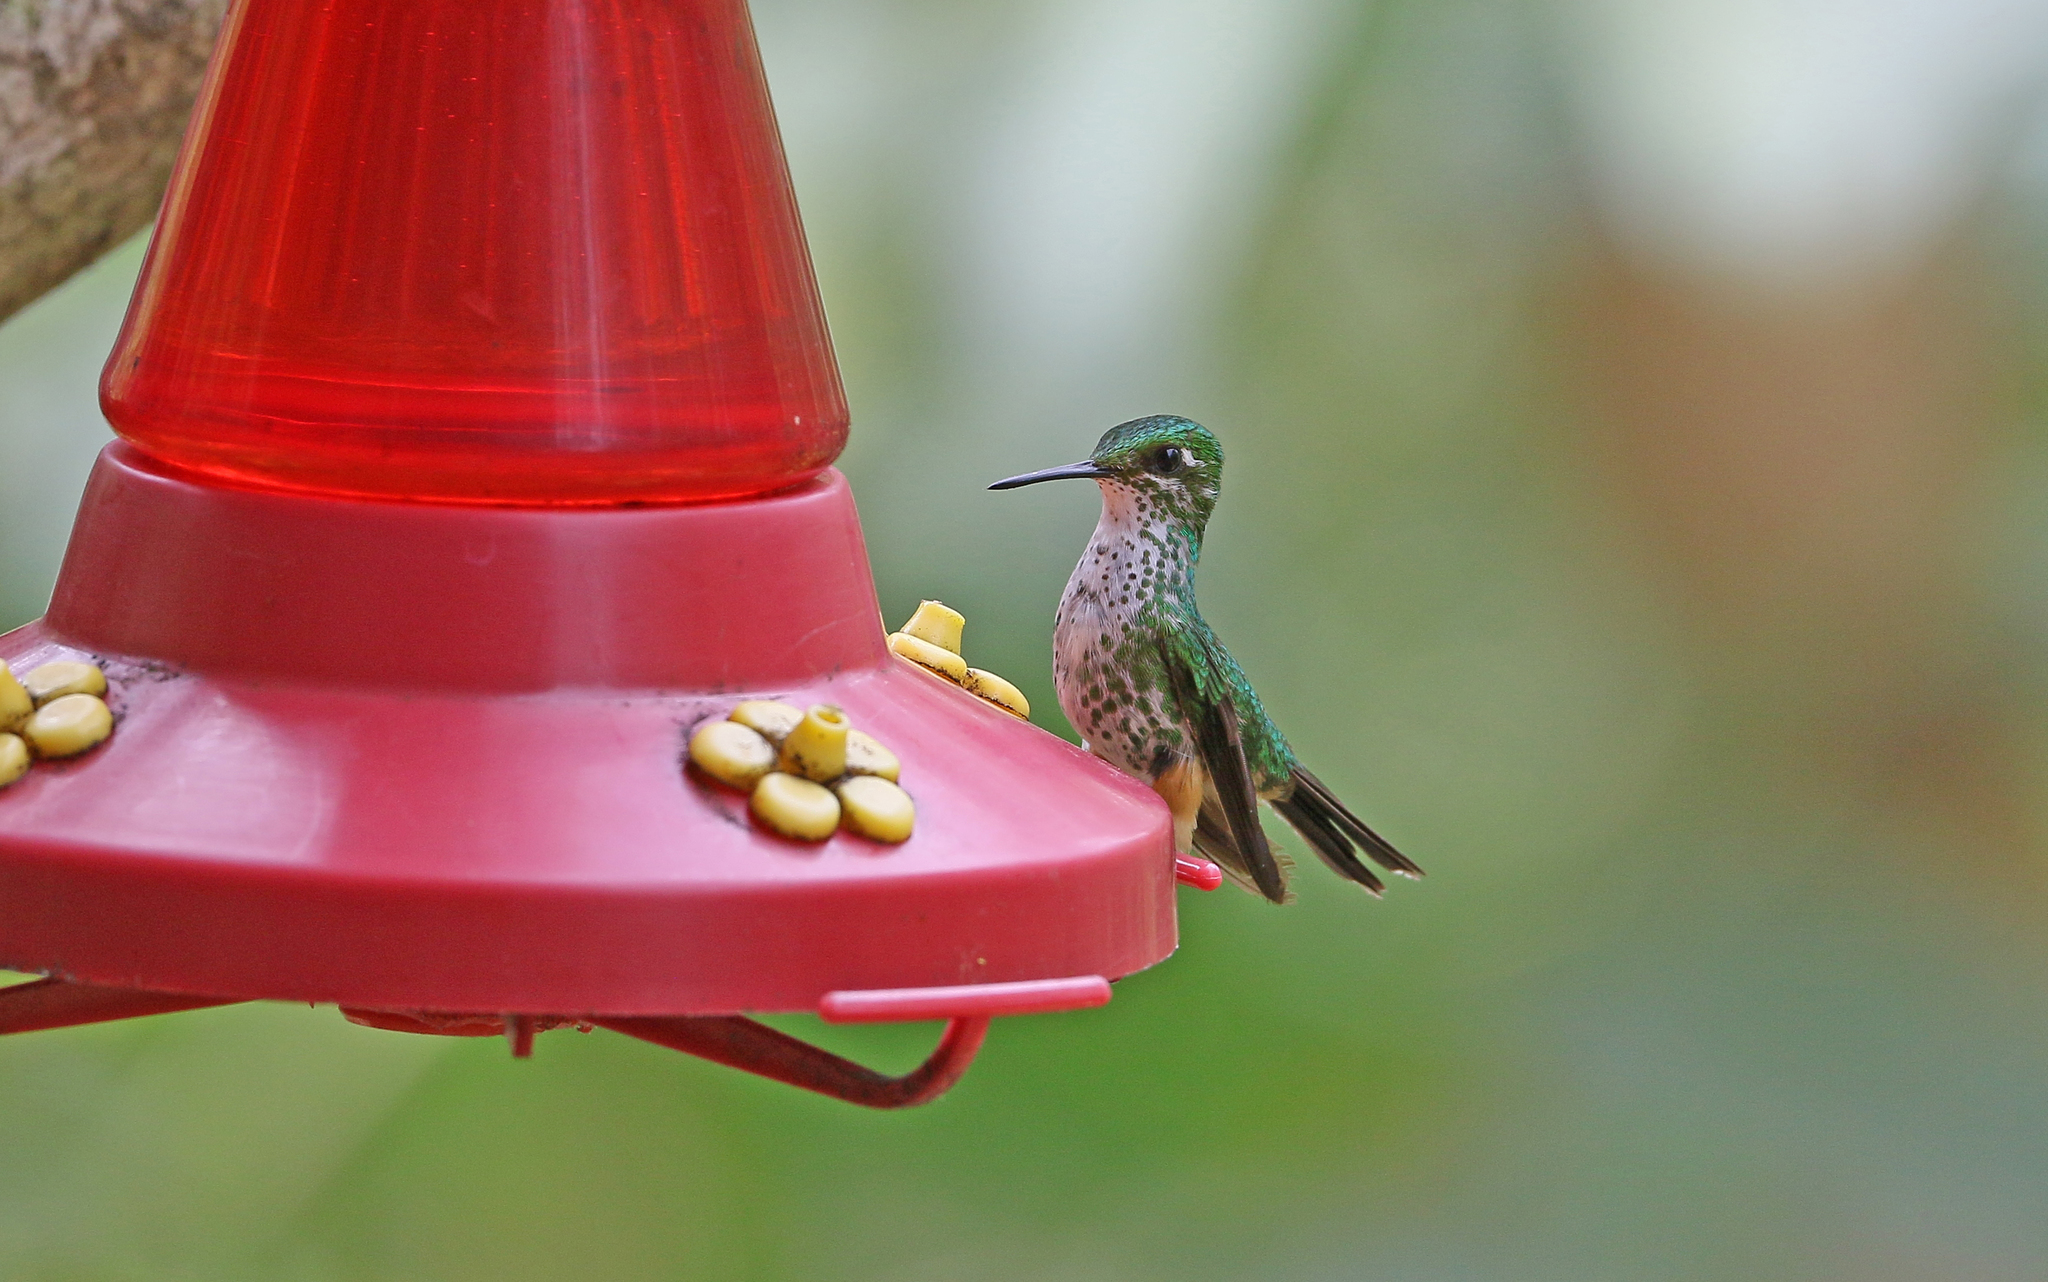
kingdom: Animalia
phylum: Chordata
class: Aves
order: Apodiformes
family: Trochilidae
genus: Ocreatus
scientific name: Ocreatus peruanus
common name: Peruvian racket-tail
